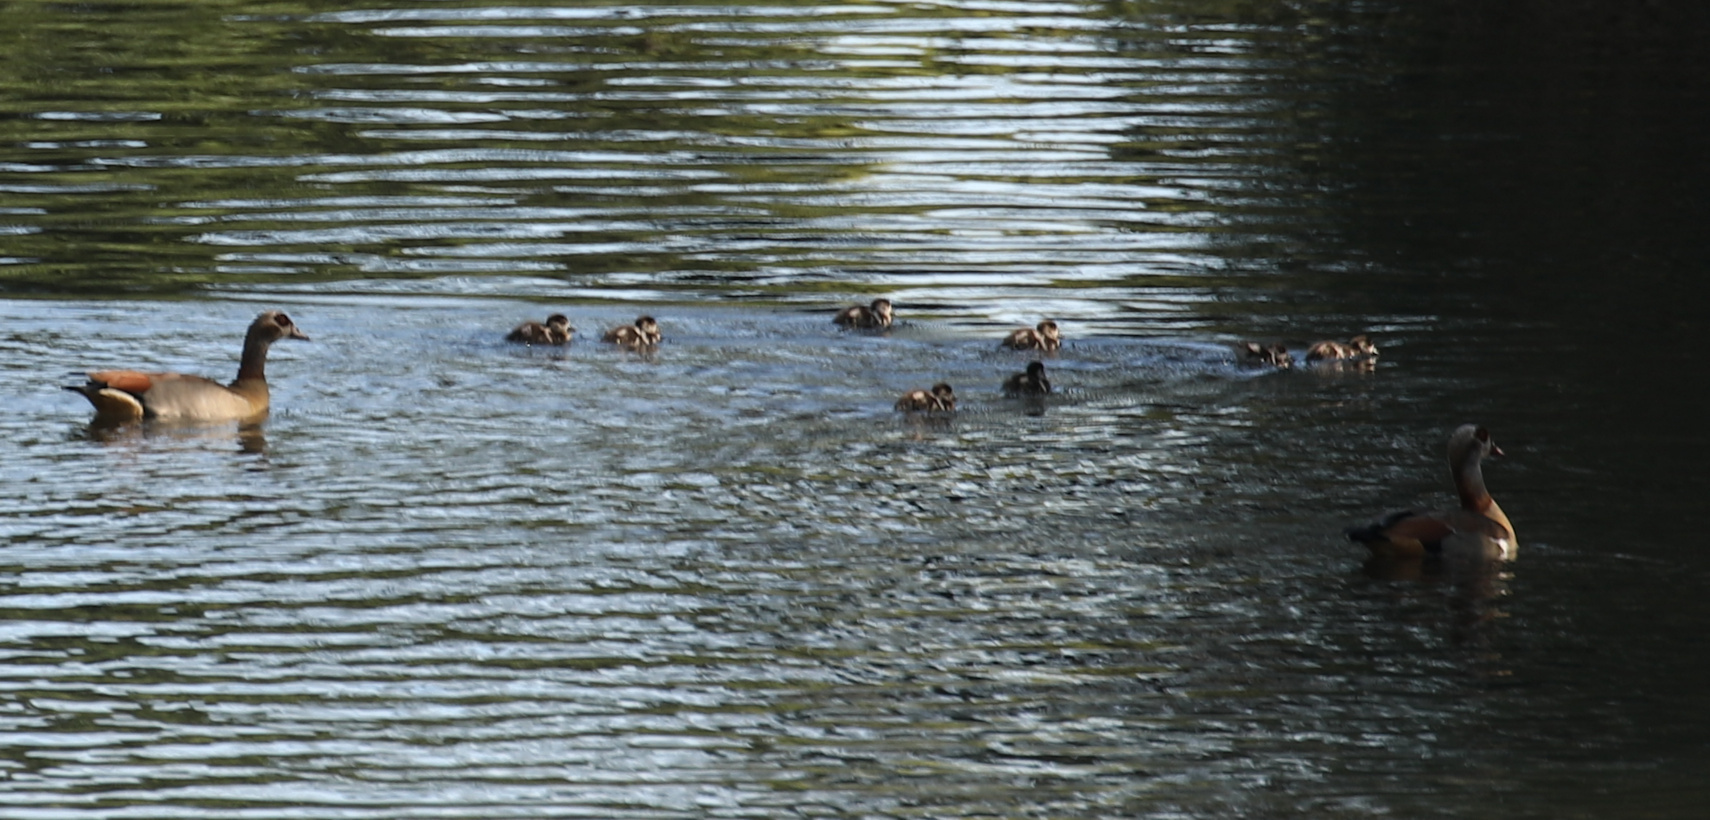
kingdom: Animalia
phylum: Chordata
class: Aves
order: Anseriformes
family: Anatidae
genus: Alopochen
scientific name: Alopochen aegyptiaca
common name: Egyptian goose
